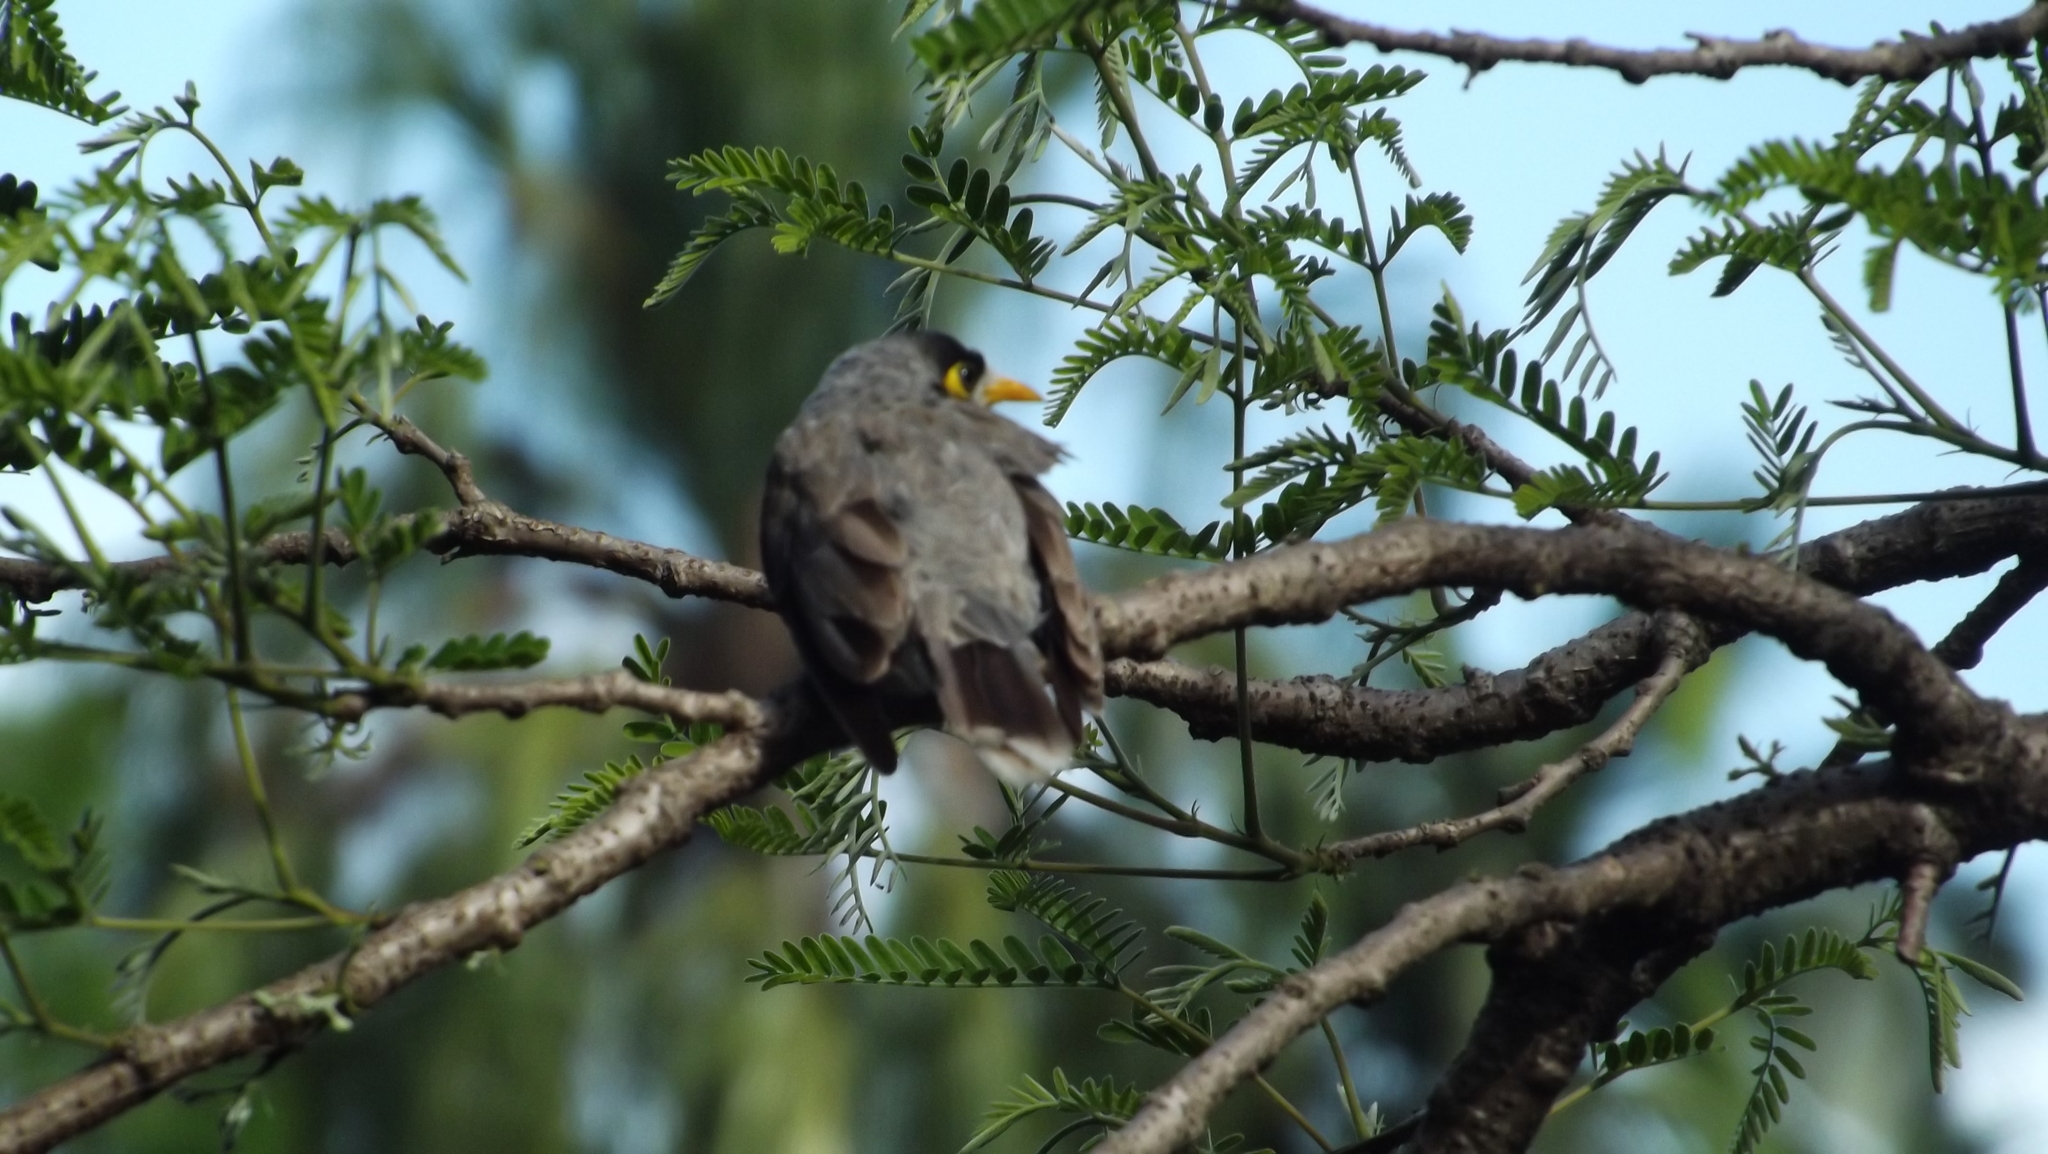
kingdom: Animalia
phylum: Chordata
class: Aves
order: Passeriformes
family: Meliphagidae
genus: Manorina
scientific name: Manorina melanocephala
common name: Noisy miner
